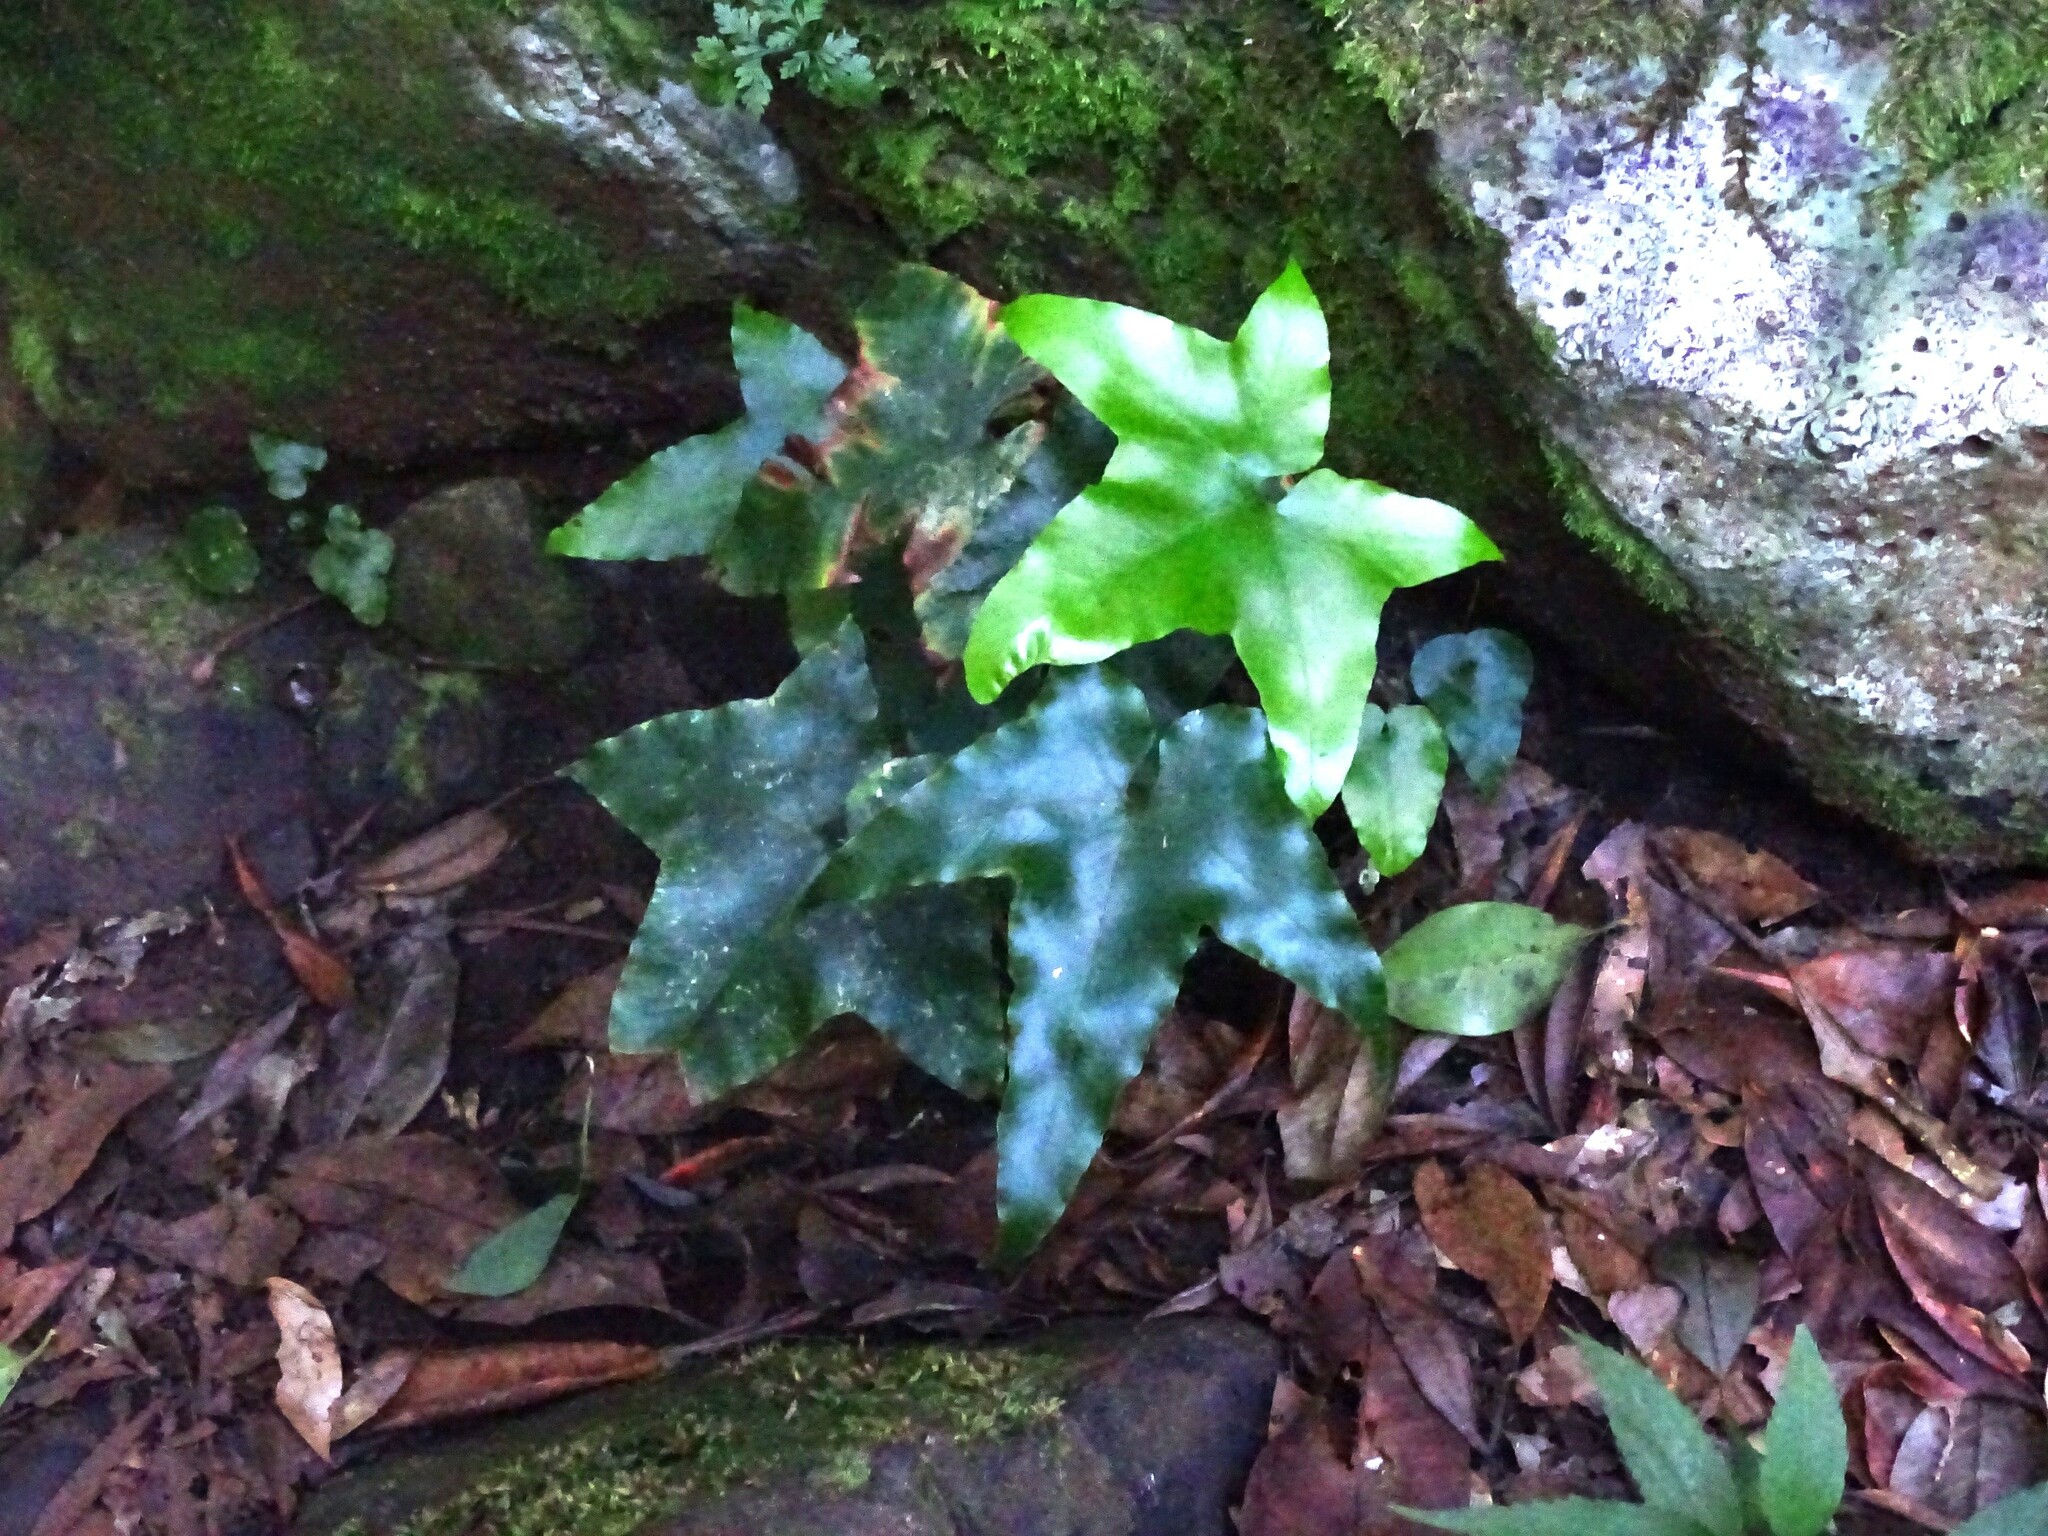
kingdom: Plantae
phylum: Tracheophyta
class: Polypodiopsida
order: Polypodiales
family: Aspleniaceae
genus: Asplenium
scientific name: Asplenium hemionitis
